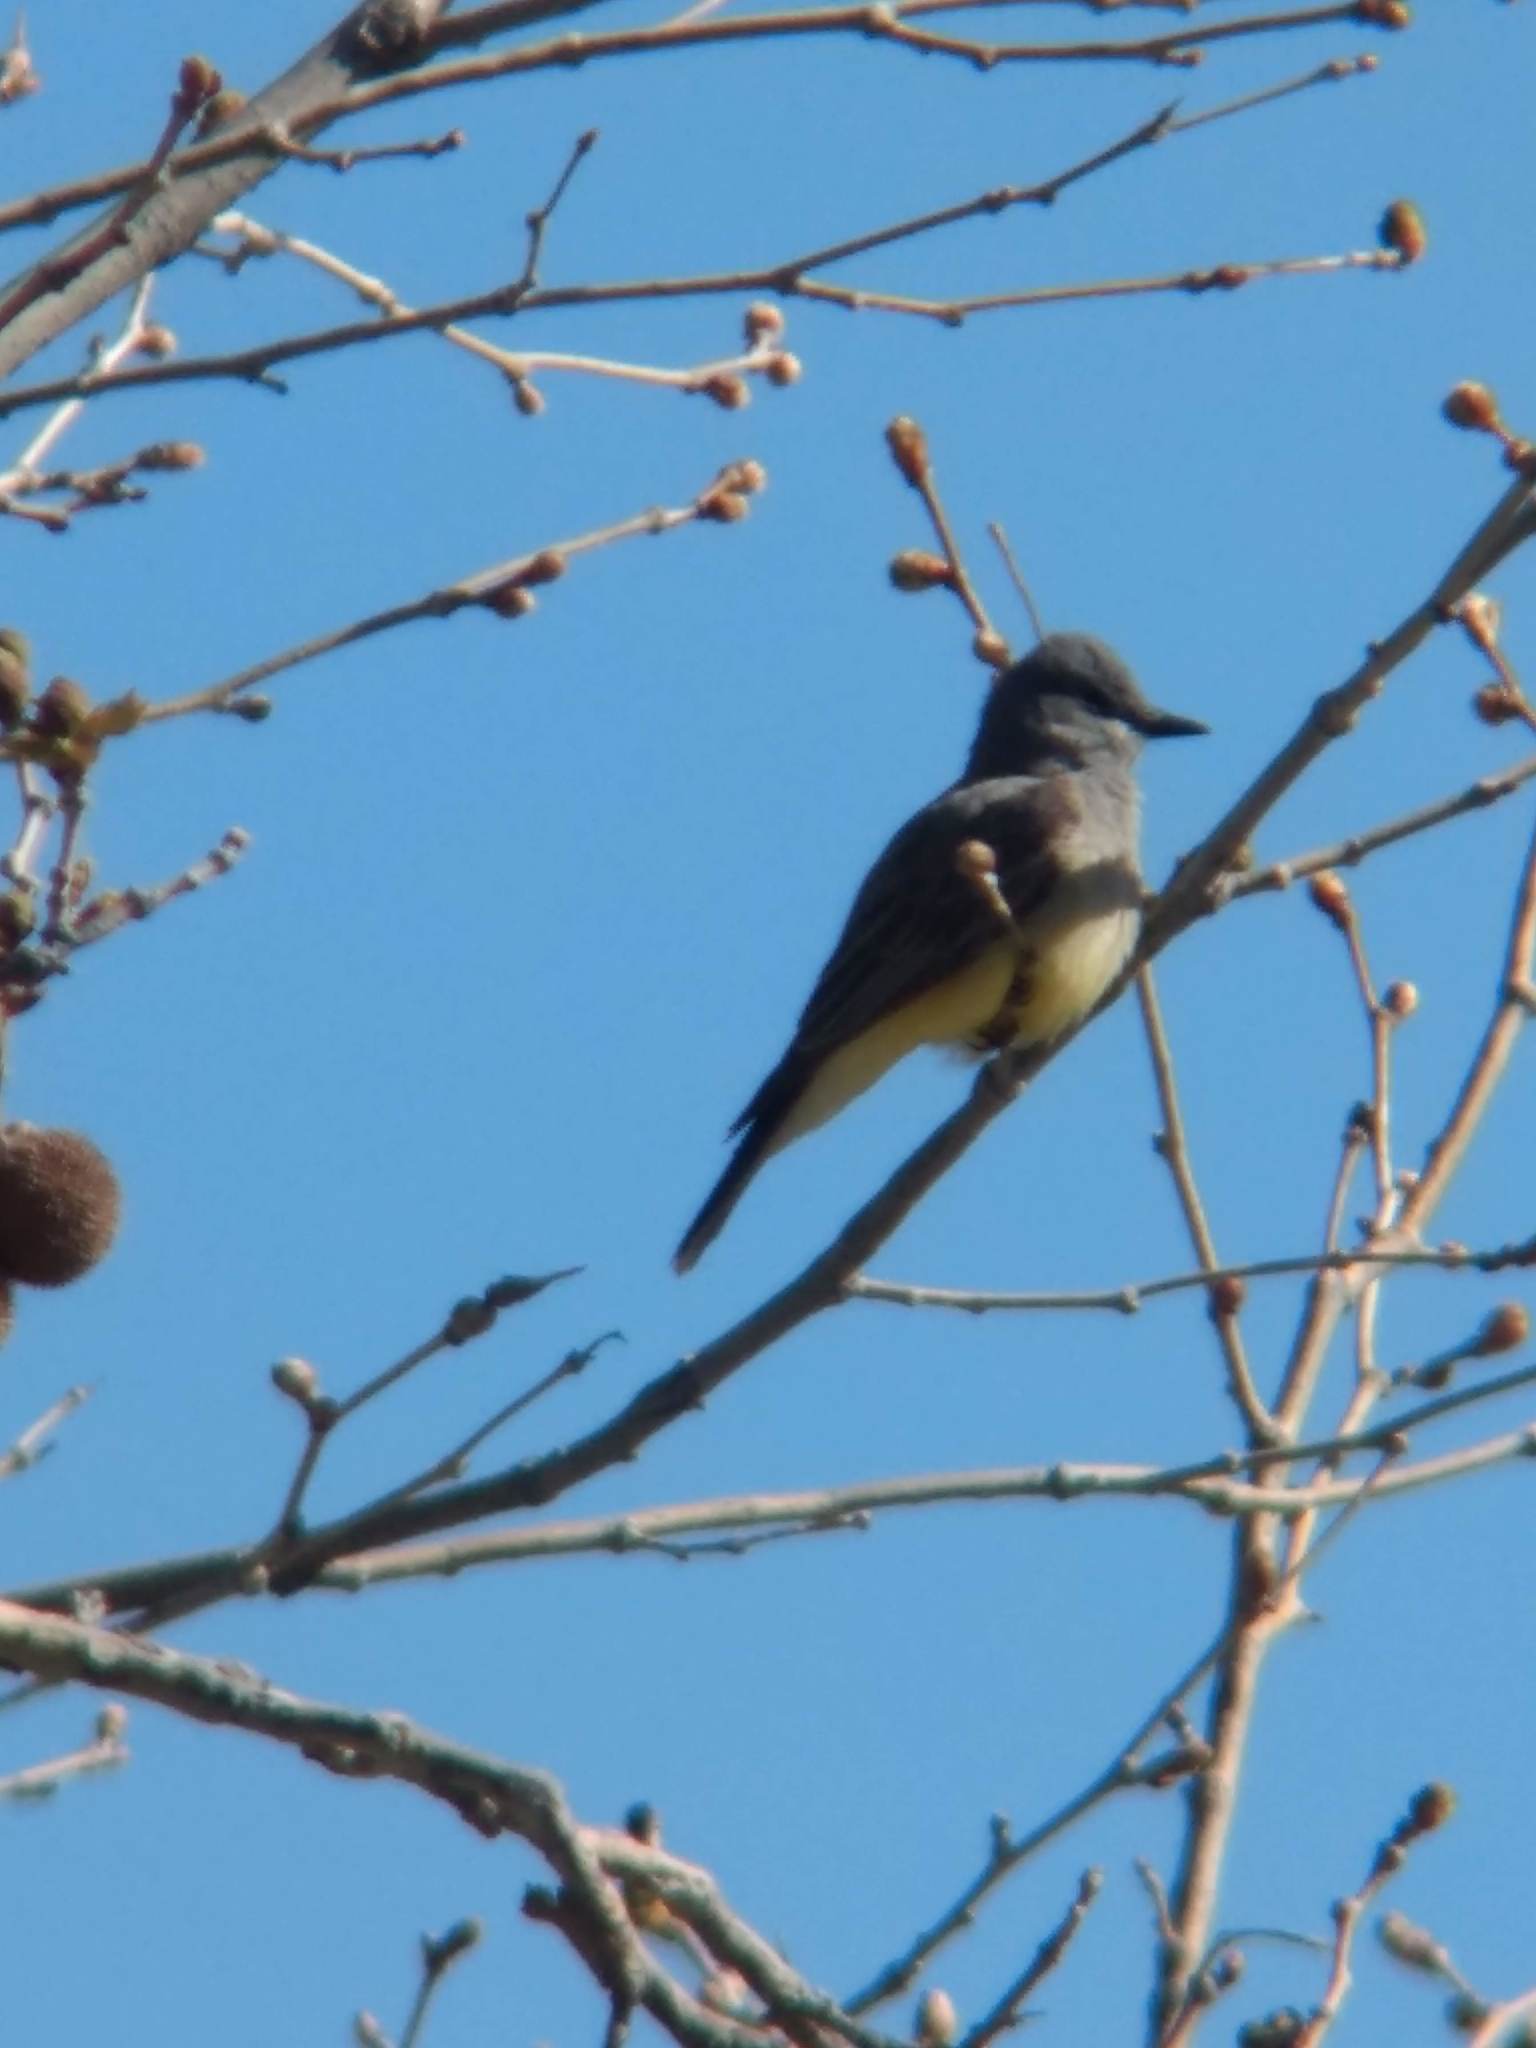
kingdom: Animalia
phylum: Chordata
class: Aves
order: Passeriformes
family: Tyrannidae
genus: Tyrannus
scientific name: Tyrannus vociferans
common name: Cassin's kingbird
